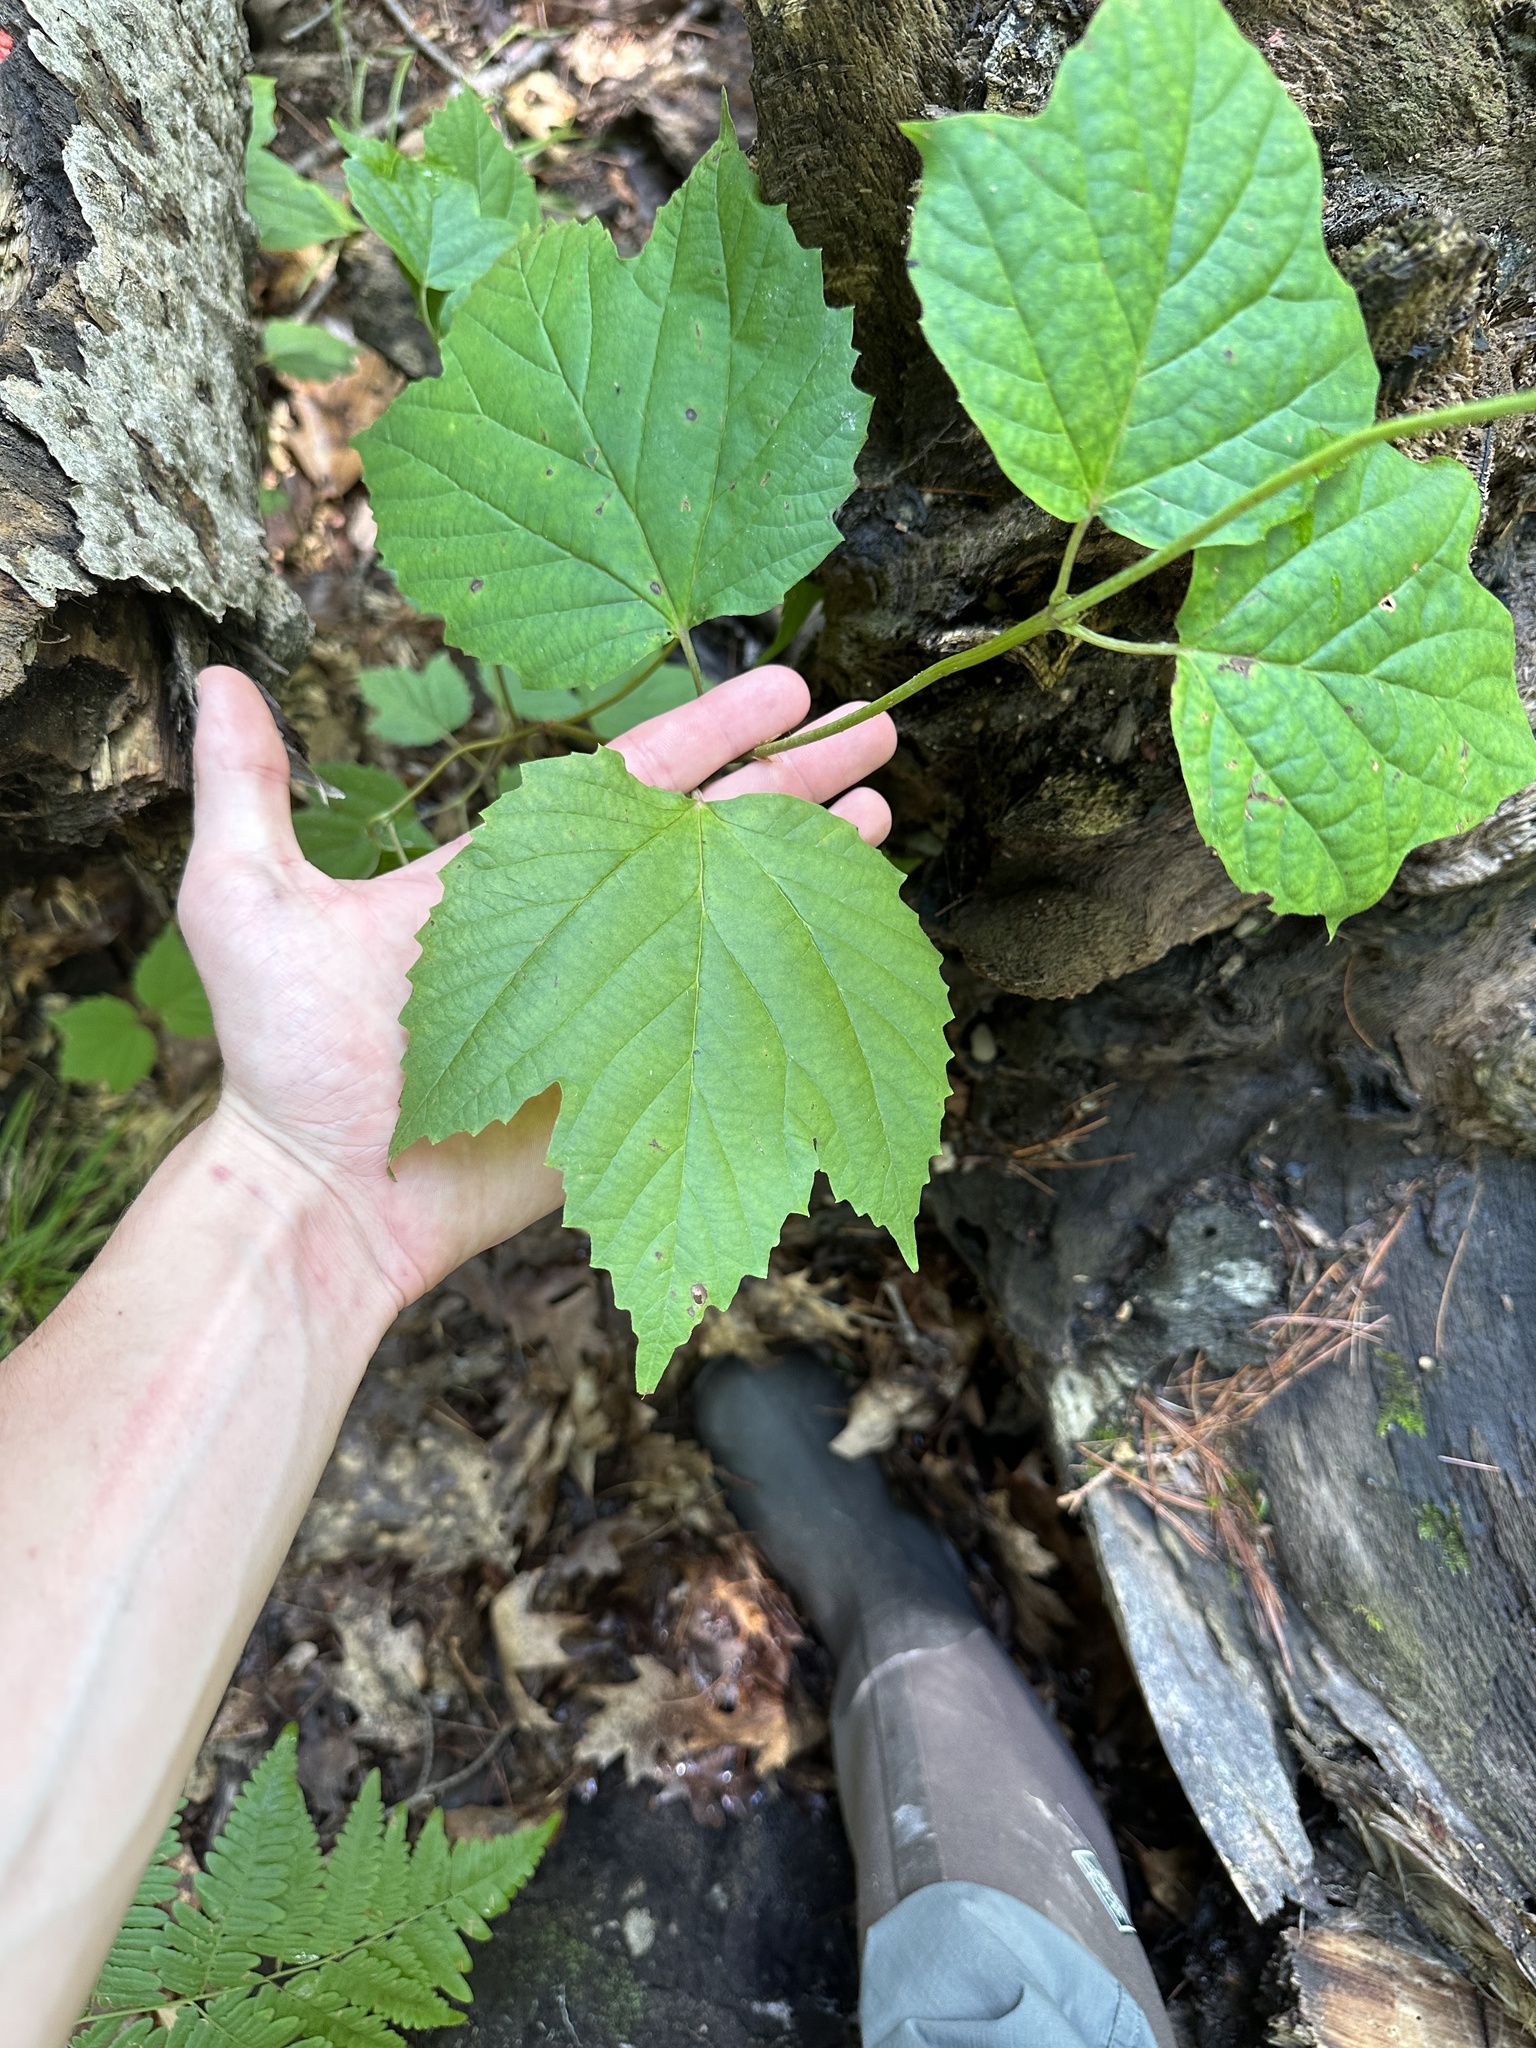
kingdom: Plantae
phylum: Tracheophyta
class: Magnoliopsida
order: Dipsacales
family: Viburnaceae
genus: Viburnum
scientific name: Viburnum acerifolium
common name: Dockmackie
